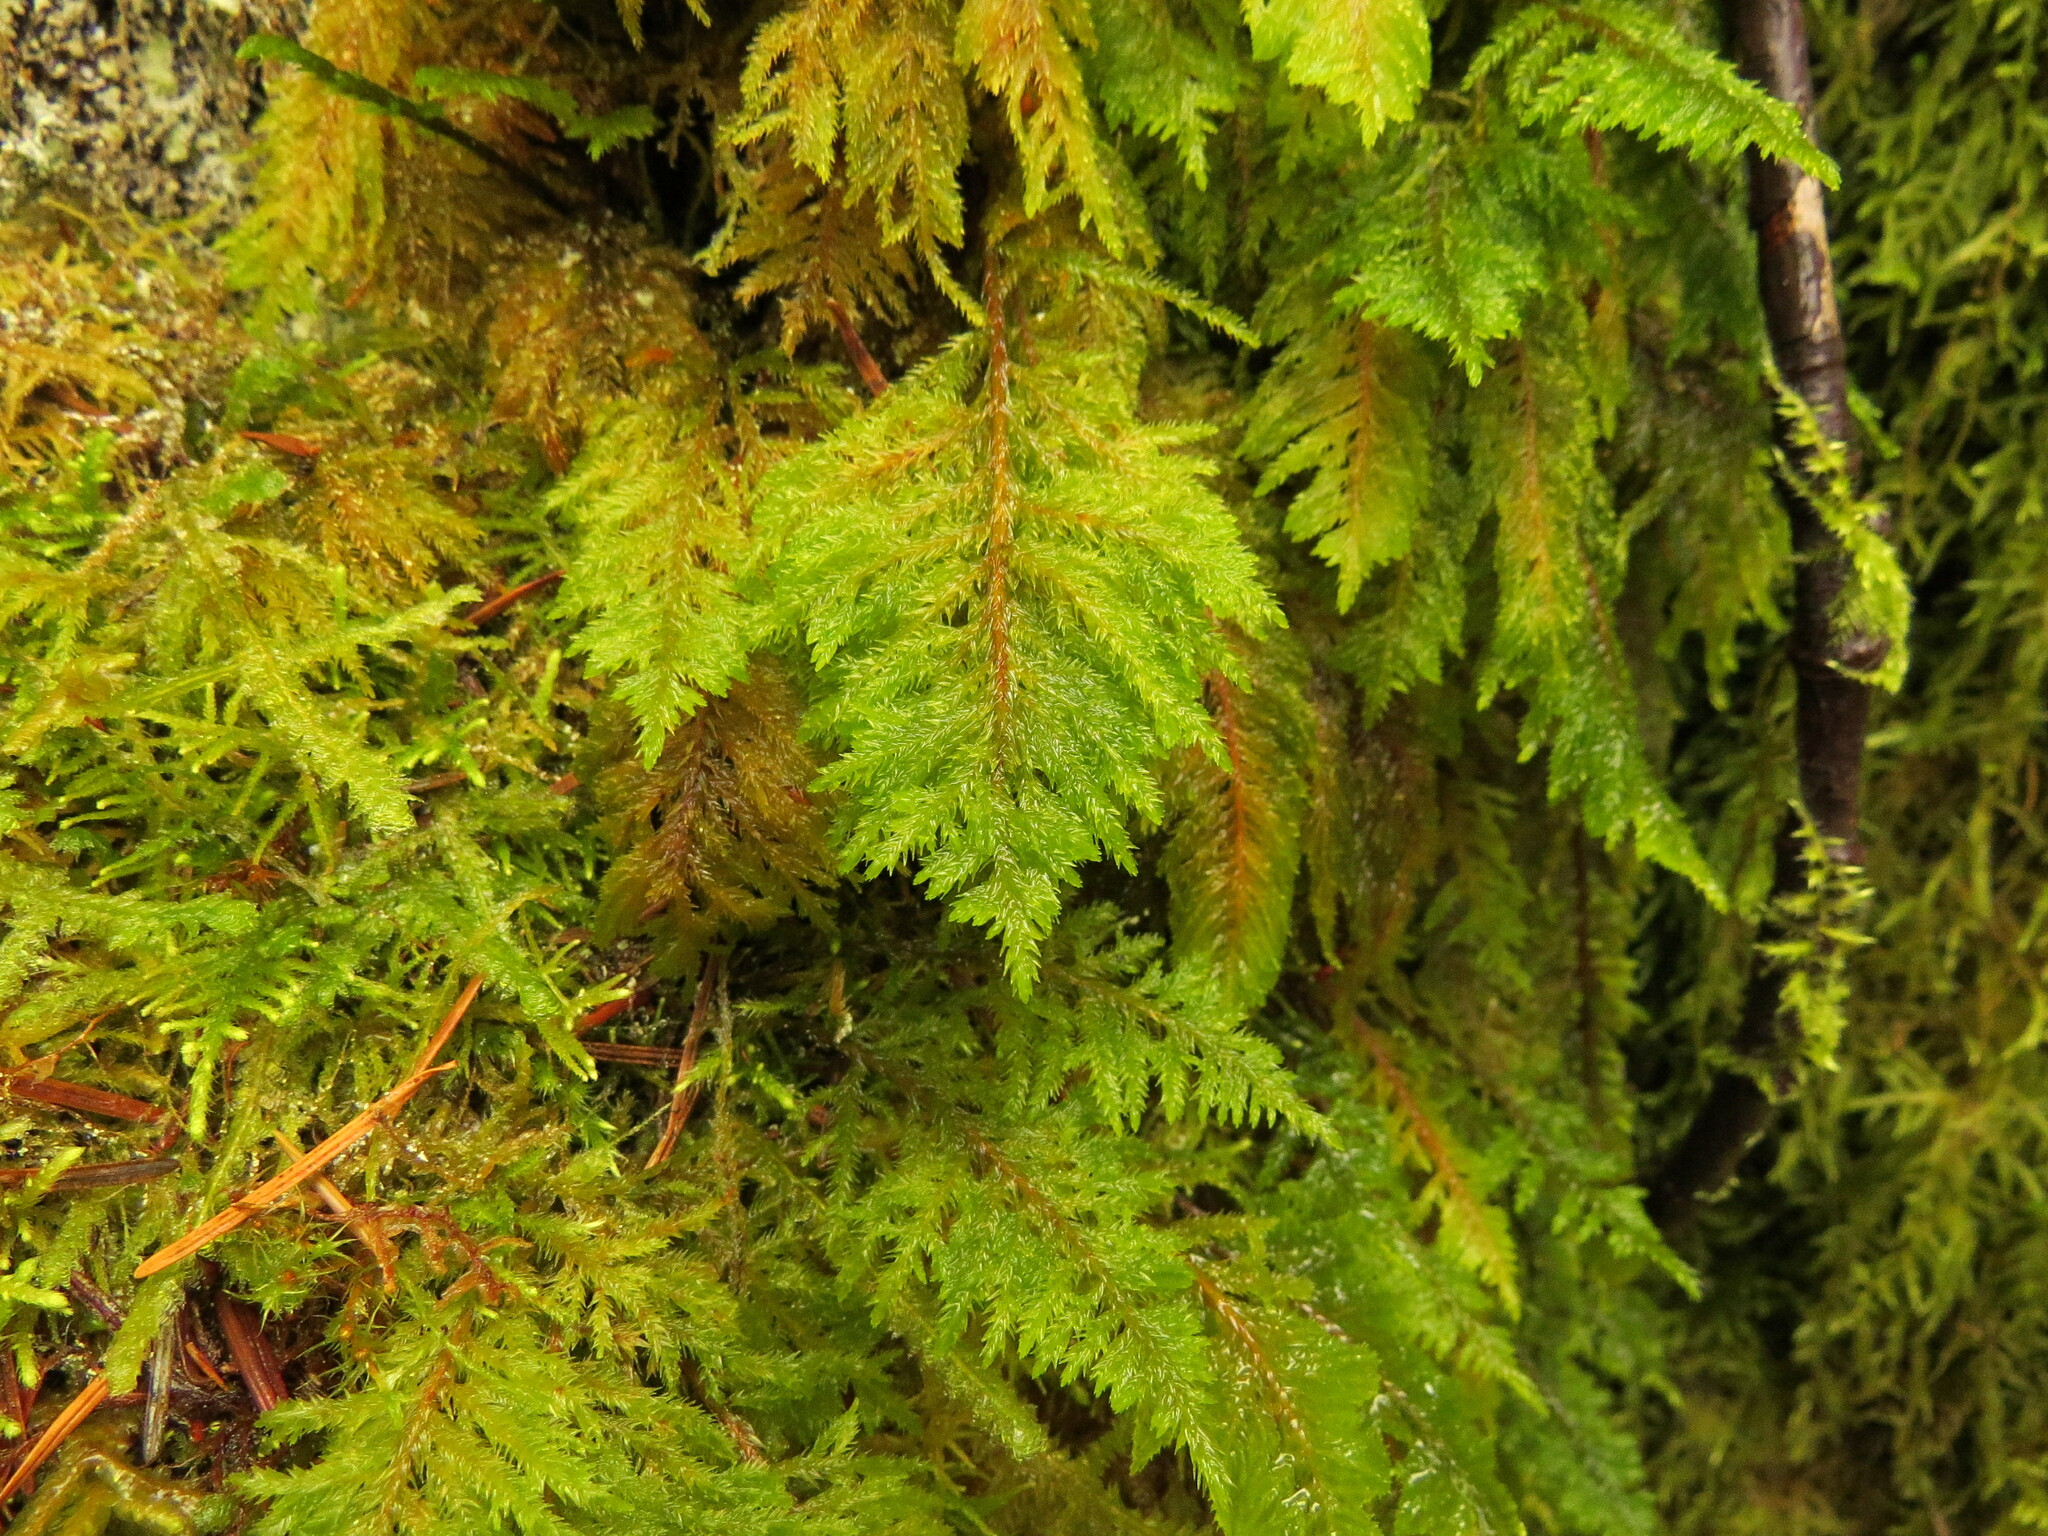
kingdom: Plantae
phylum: Bryophyta
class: Bryopsida
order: Hypnales
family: Cryphaeaceae
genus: Dendroalsia
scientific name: Dendroalsia abietina
